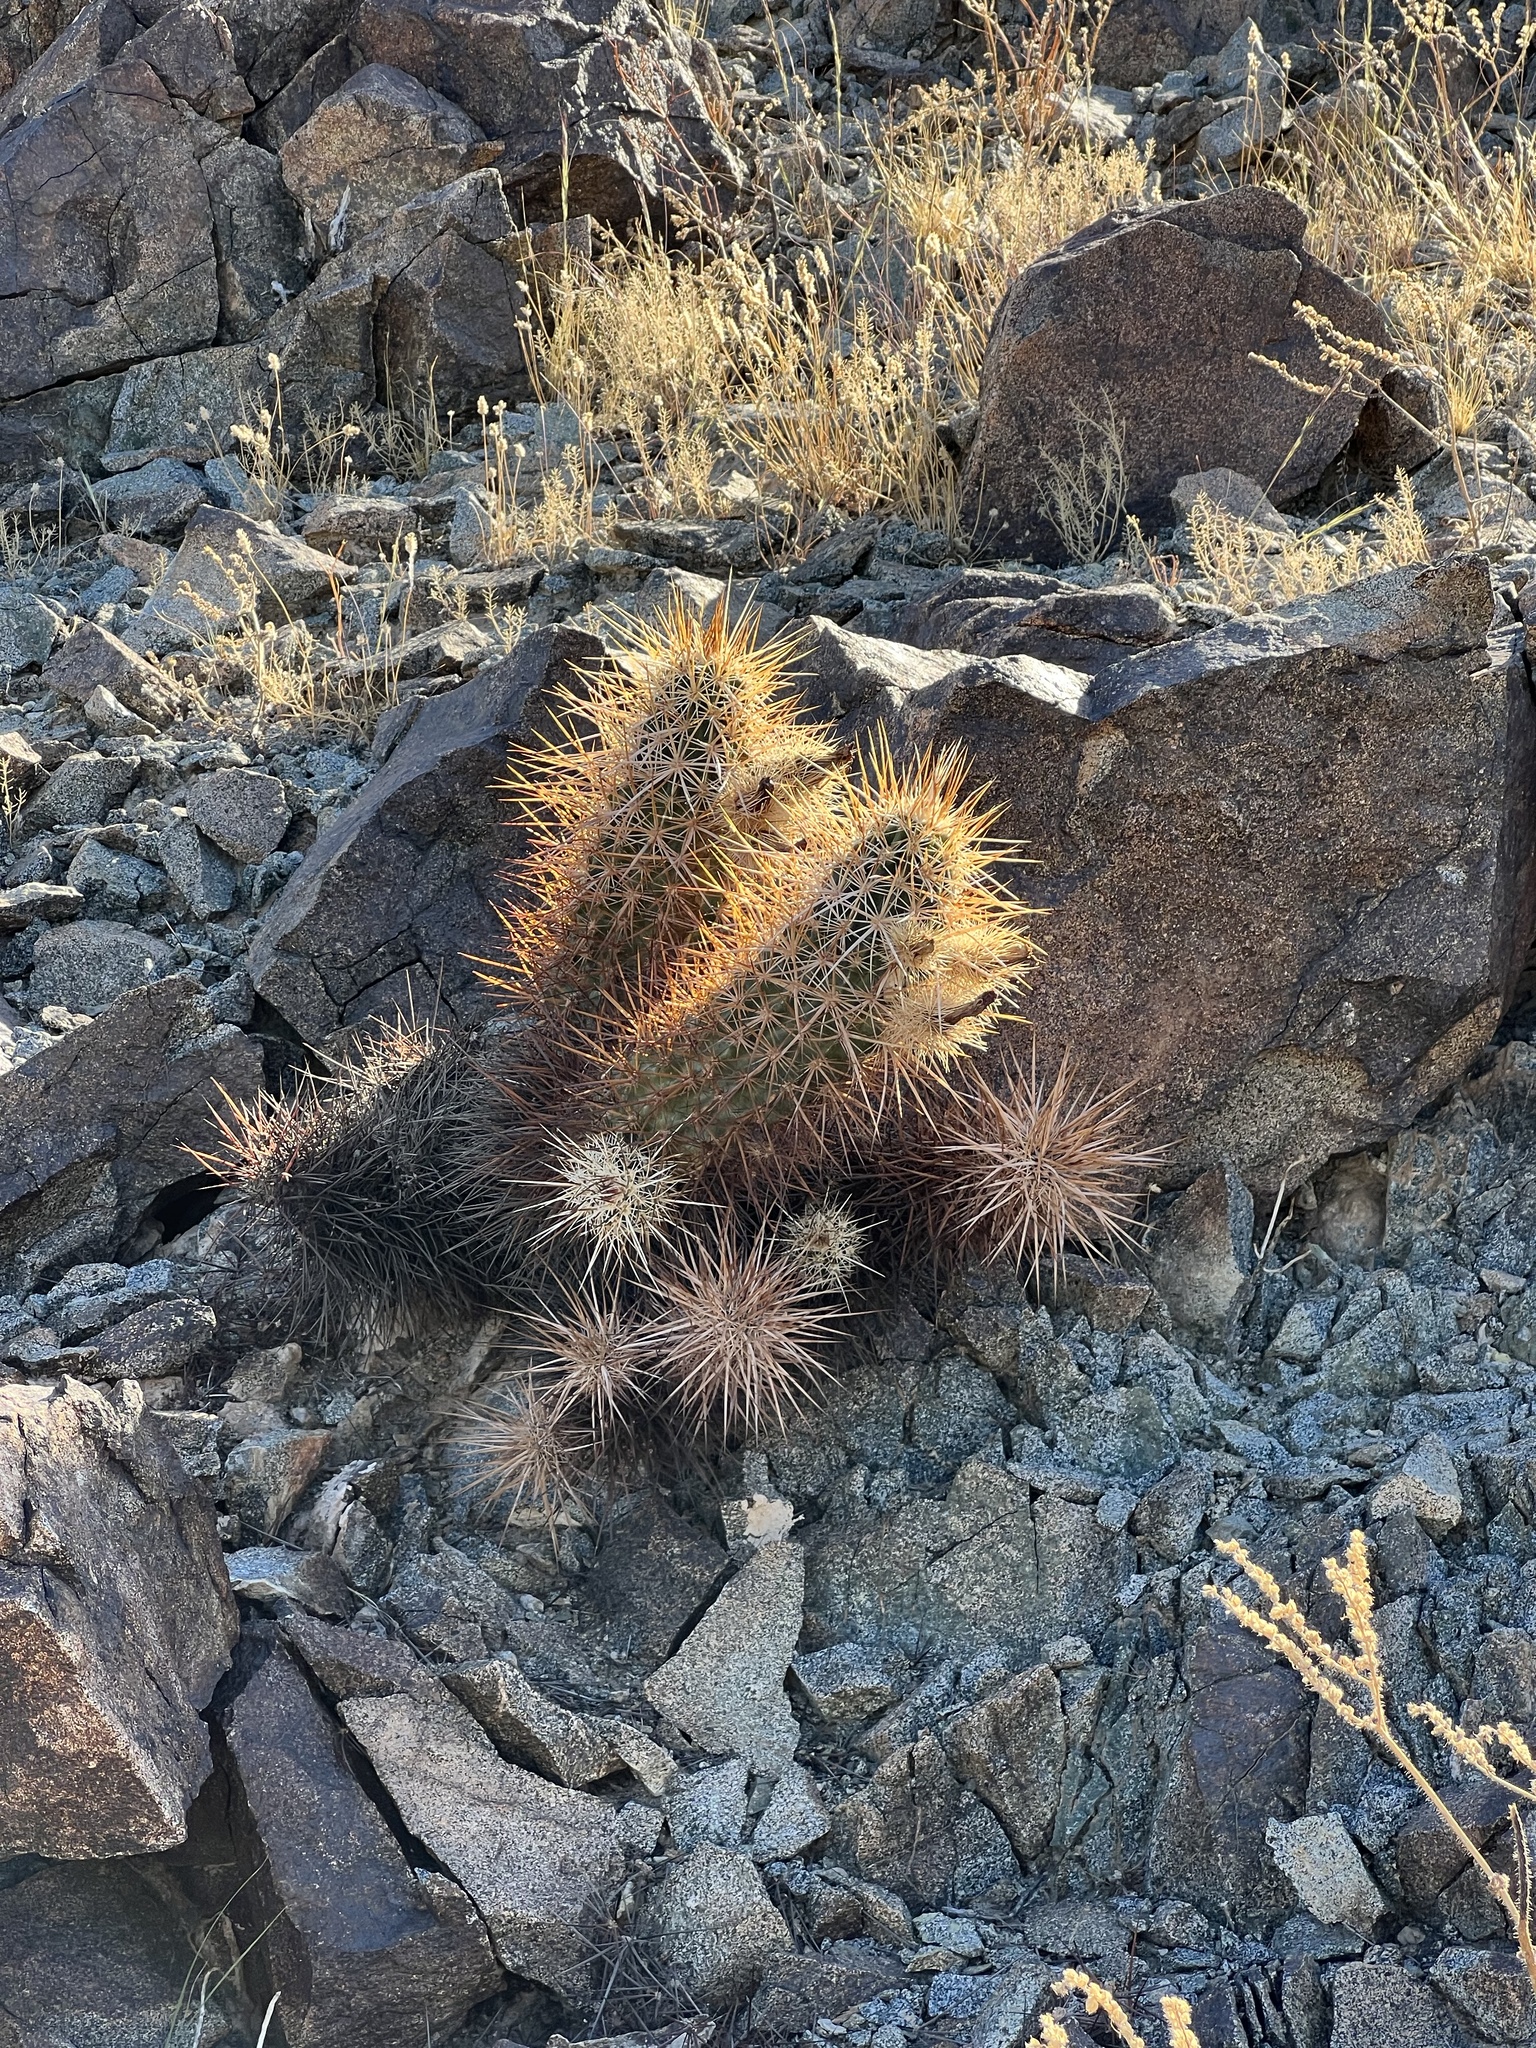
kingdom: Plantae
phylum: Tracheophyta
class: Magnoliopsida
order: Caryophyllales
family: Cactaceae
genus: Echinocereus
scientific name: Echinocereus engelmannii
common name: Engelmann's hedgehog cactus
